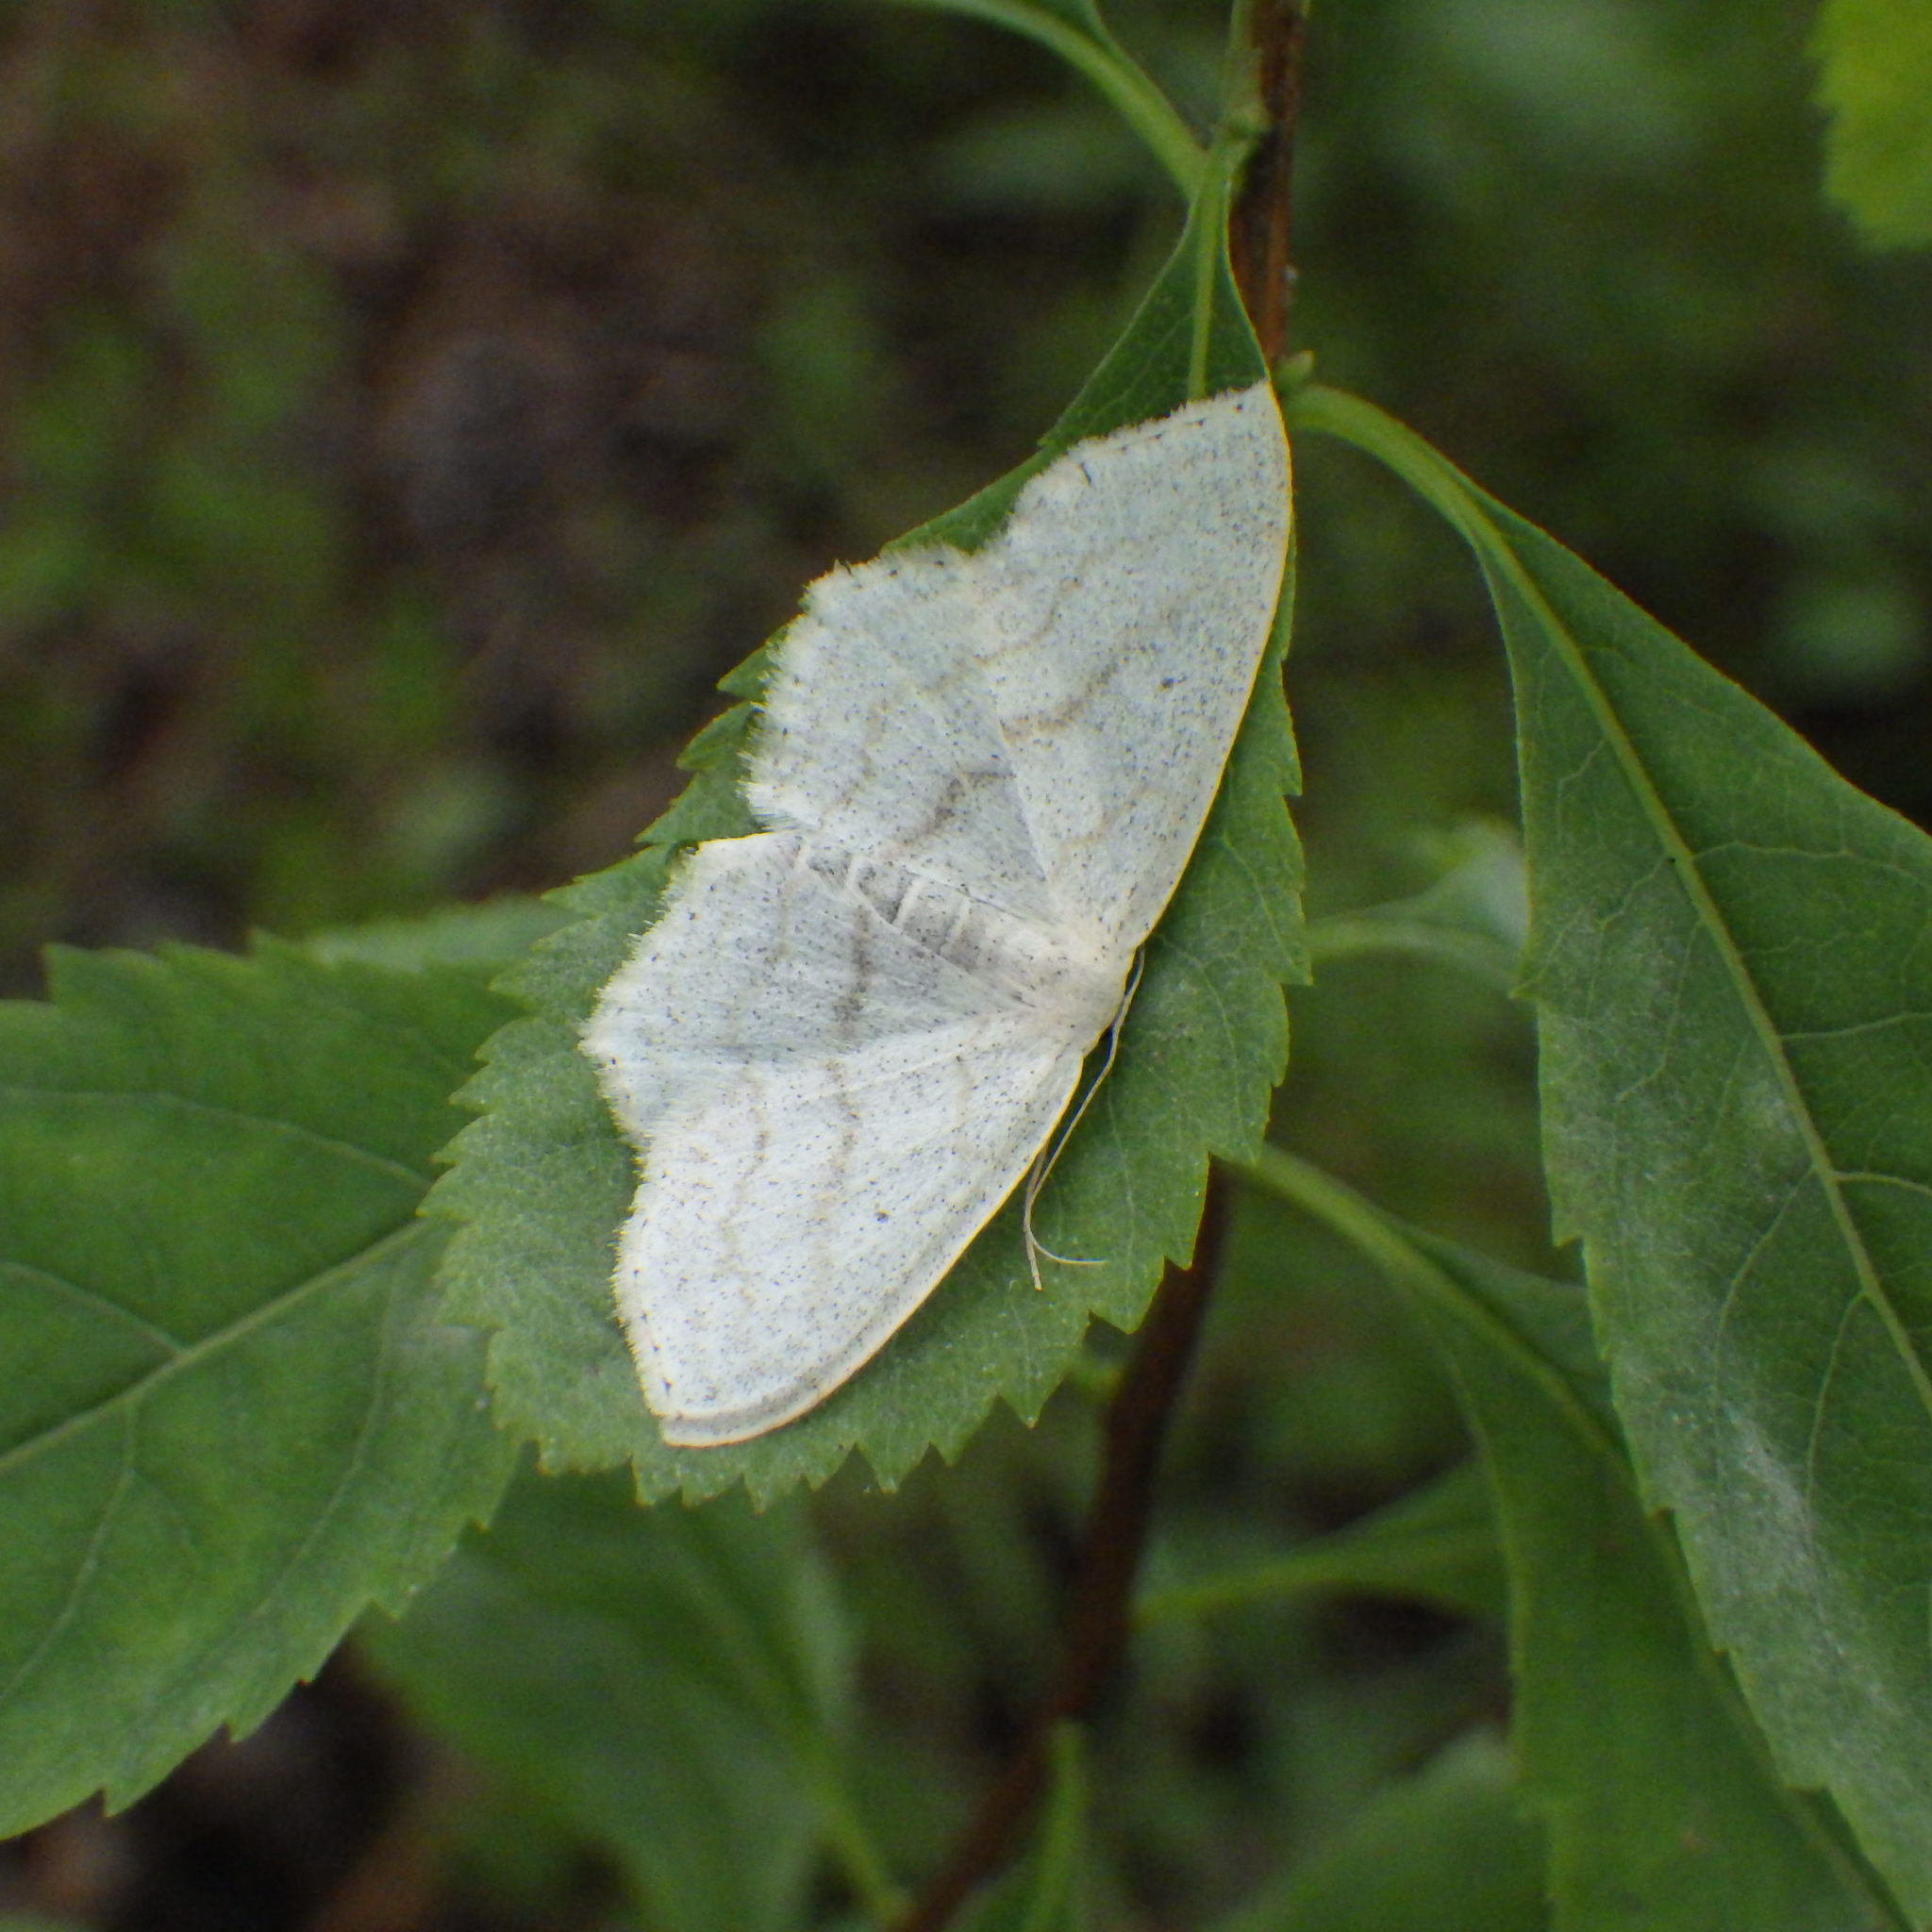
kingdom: Animalia
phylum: Arthropoda
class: Insecta
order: Lepidoptera
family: Geometridae
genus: Scopula
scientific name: Scopula limboundata
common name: Large lace border
